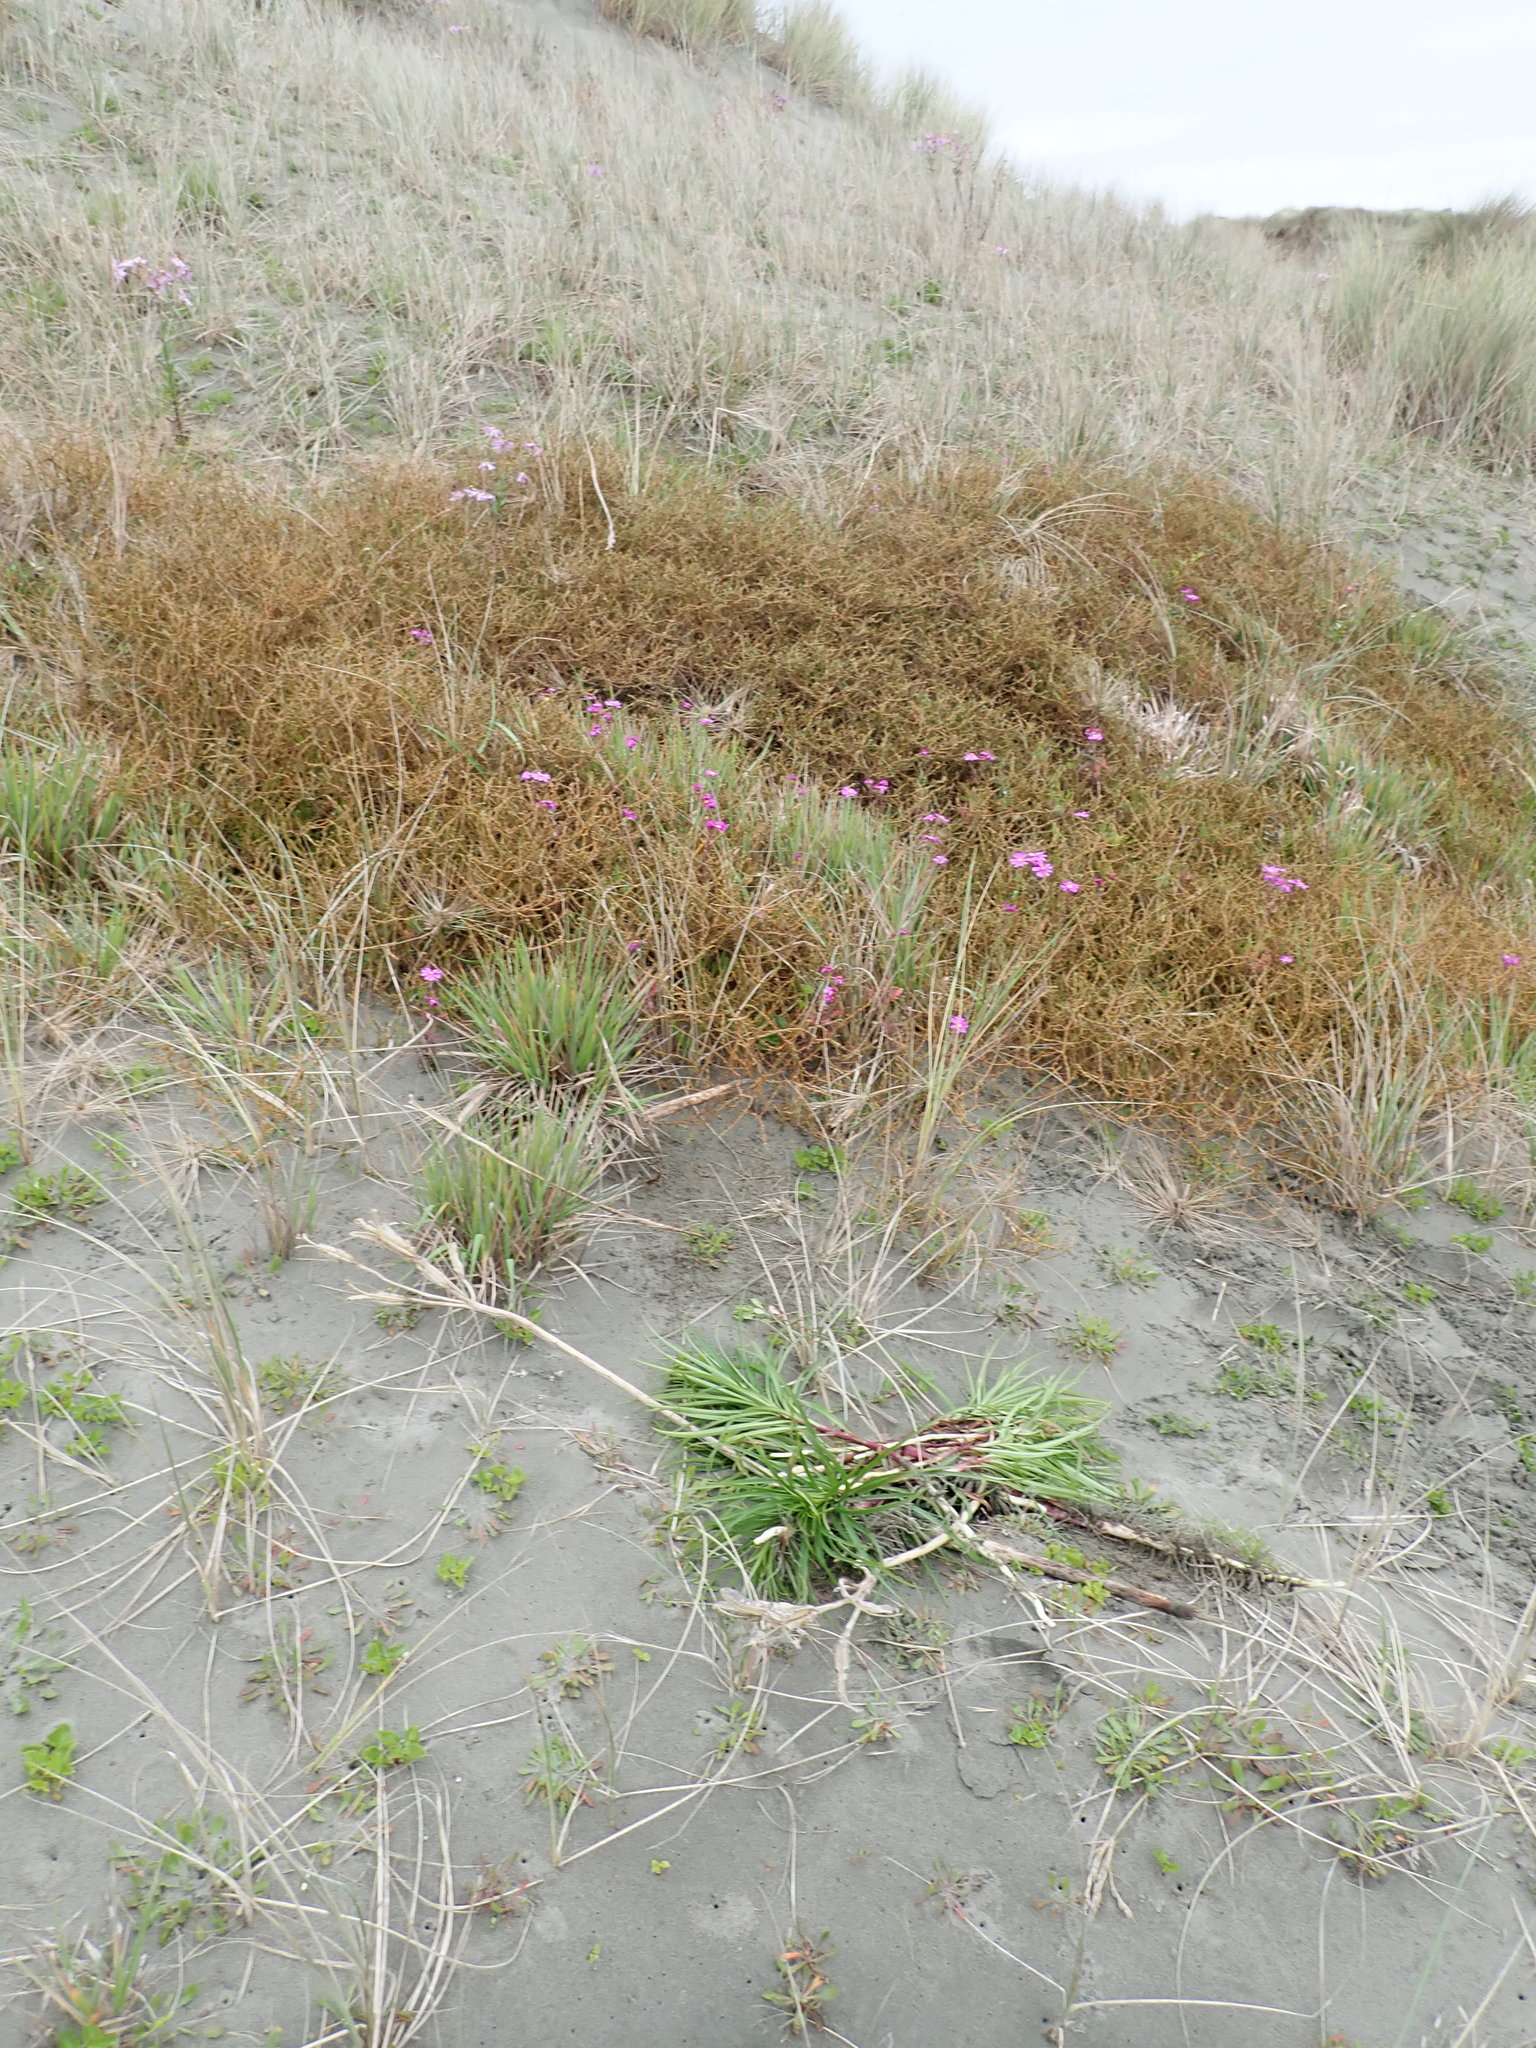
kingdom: Plantae
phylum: Tracheophyta
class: Liliopsida
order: Liliales
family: Liliaceae
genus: Lilium
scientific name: Lilium formosanum
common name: Formosa lily
